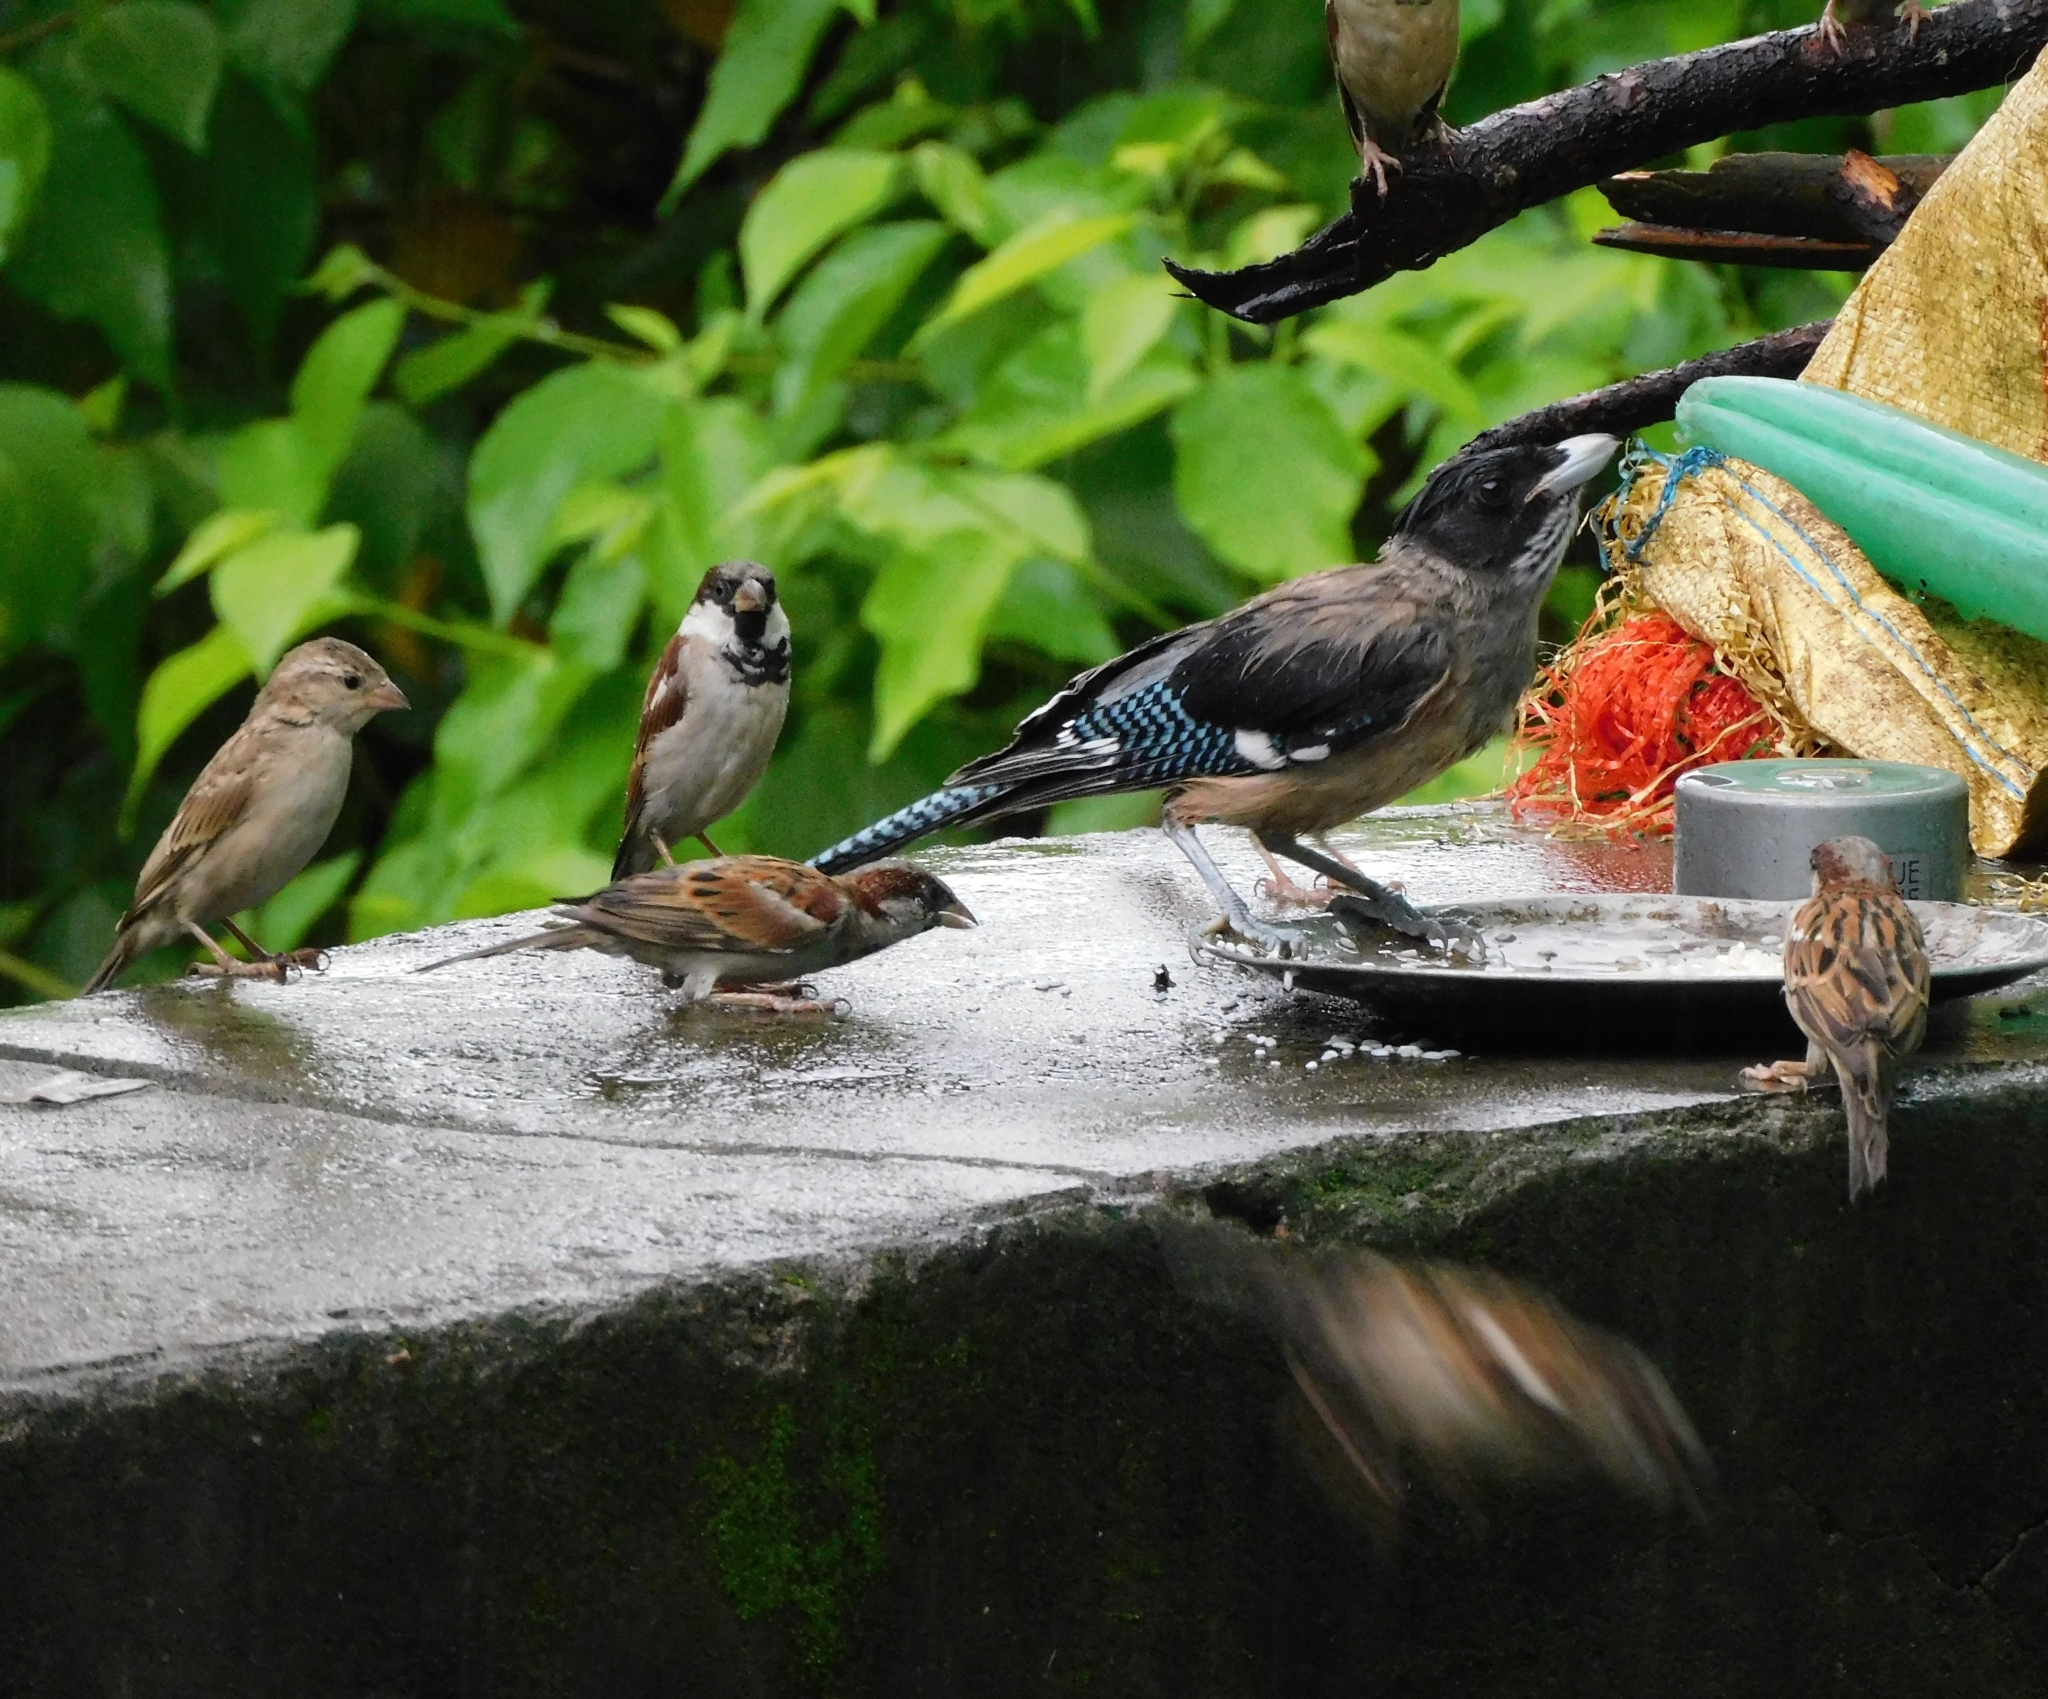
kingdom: Animalia
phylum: Chordata
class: Aves
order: Passeriformes
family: Corvidae
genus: Garrulus
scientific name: Garrulus lanceolatus
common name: Black-headed jay
